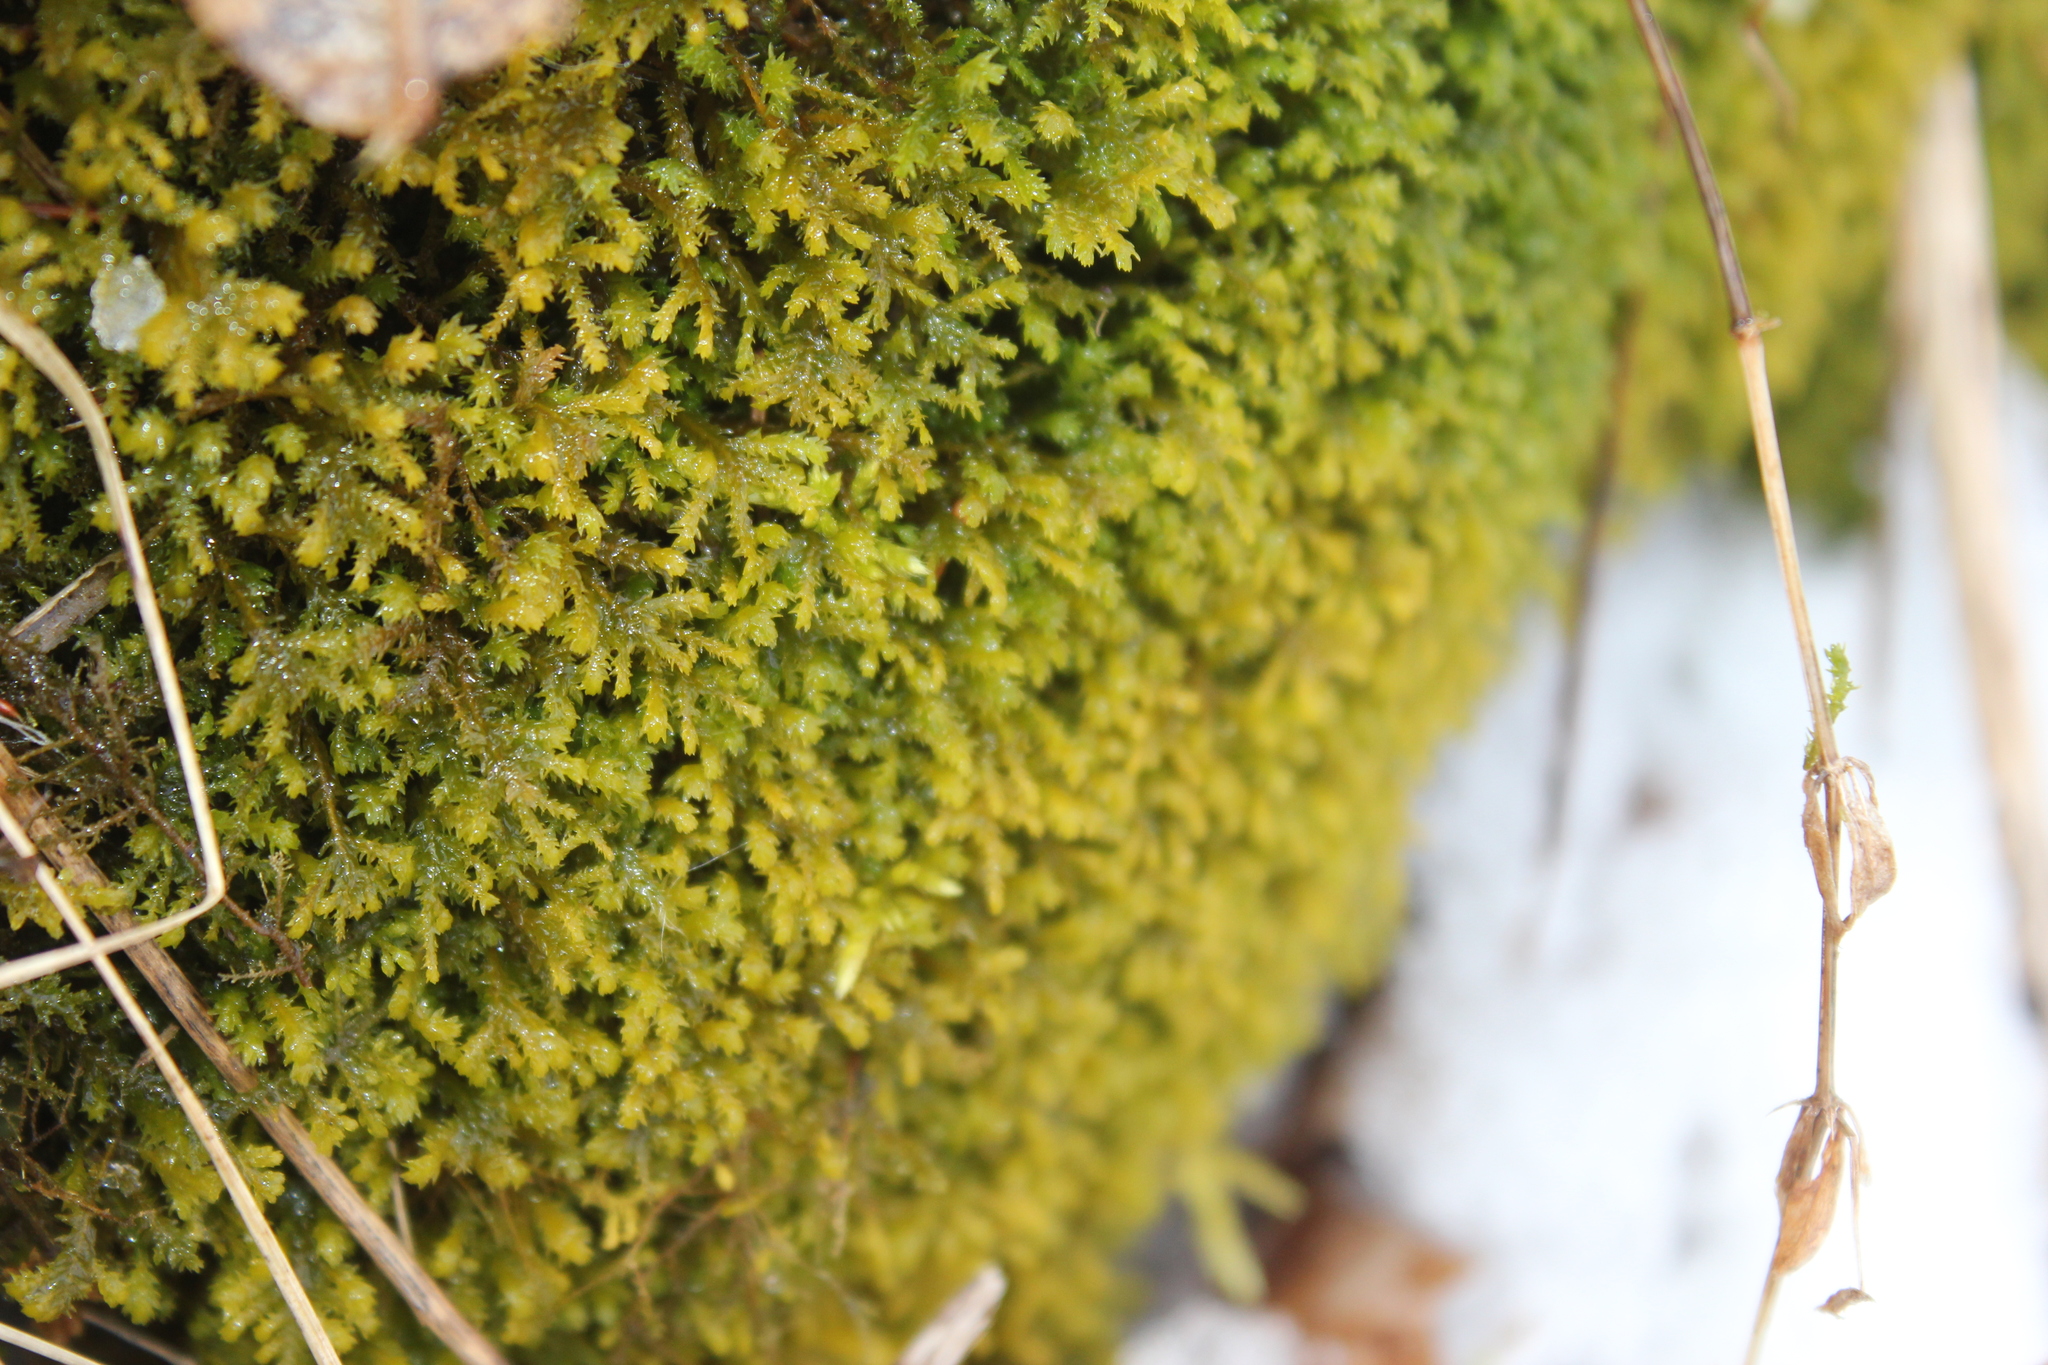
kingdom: Plantae
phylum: Bryophyta
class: Bryopsida
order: Hypnales
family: Neckeraceae
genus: Pseudanomodon
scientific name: Pseudanomodon attenuatus
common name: Tree-skirt moss
